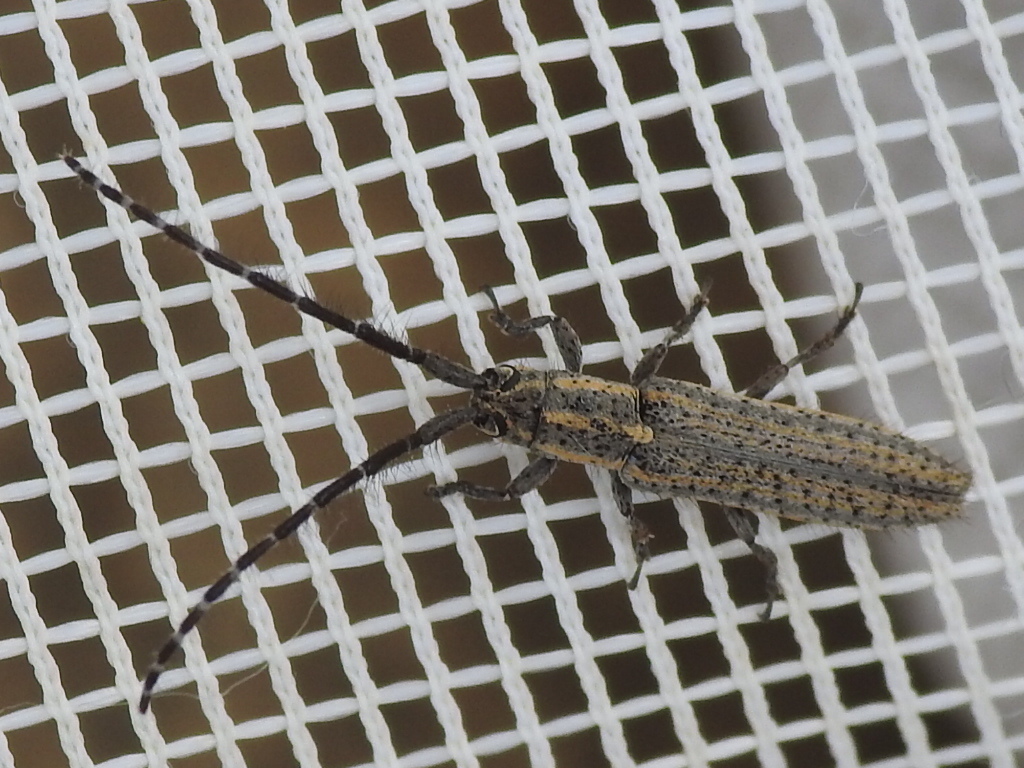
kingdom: Animalia
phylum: Arthropoda
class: Insecta
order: Coleoptera
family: Cerambycidae
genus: Dorcasta
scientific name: Dorcasta cinerea
